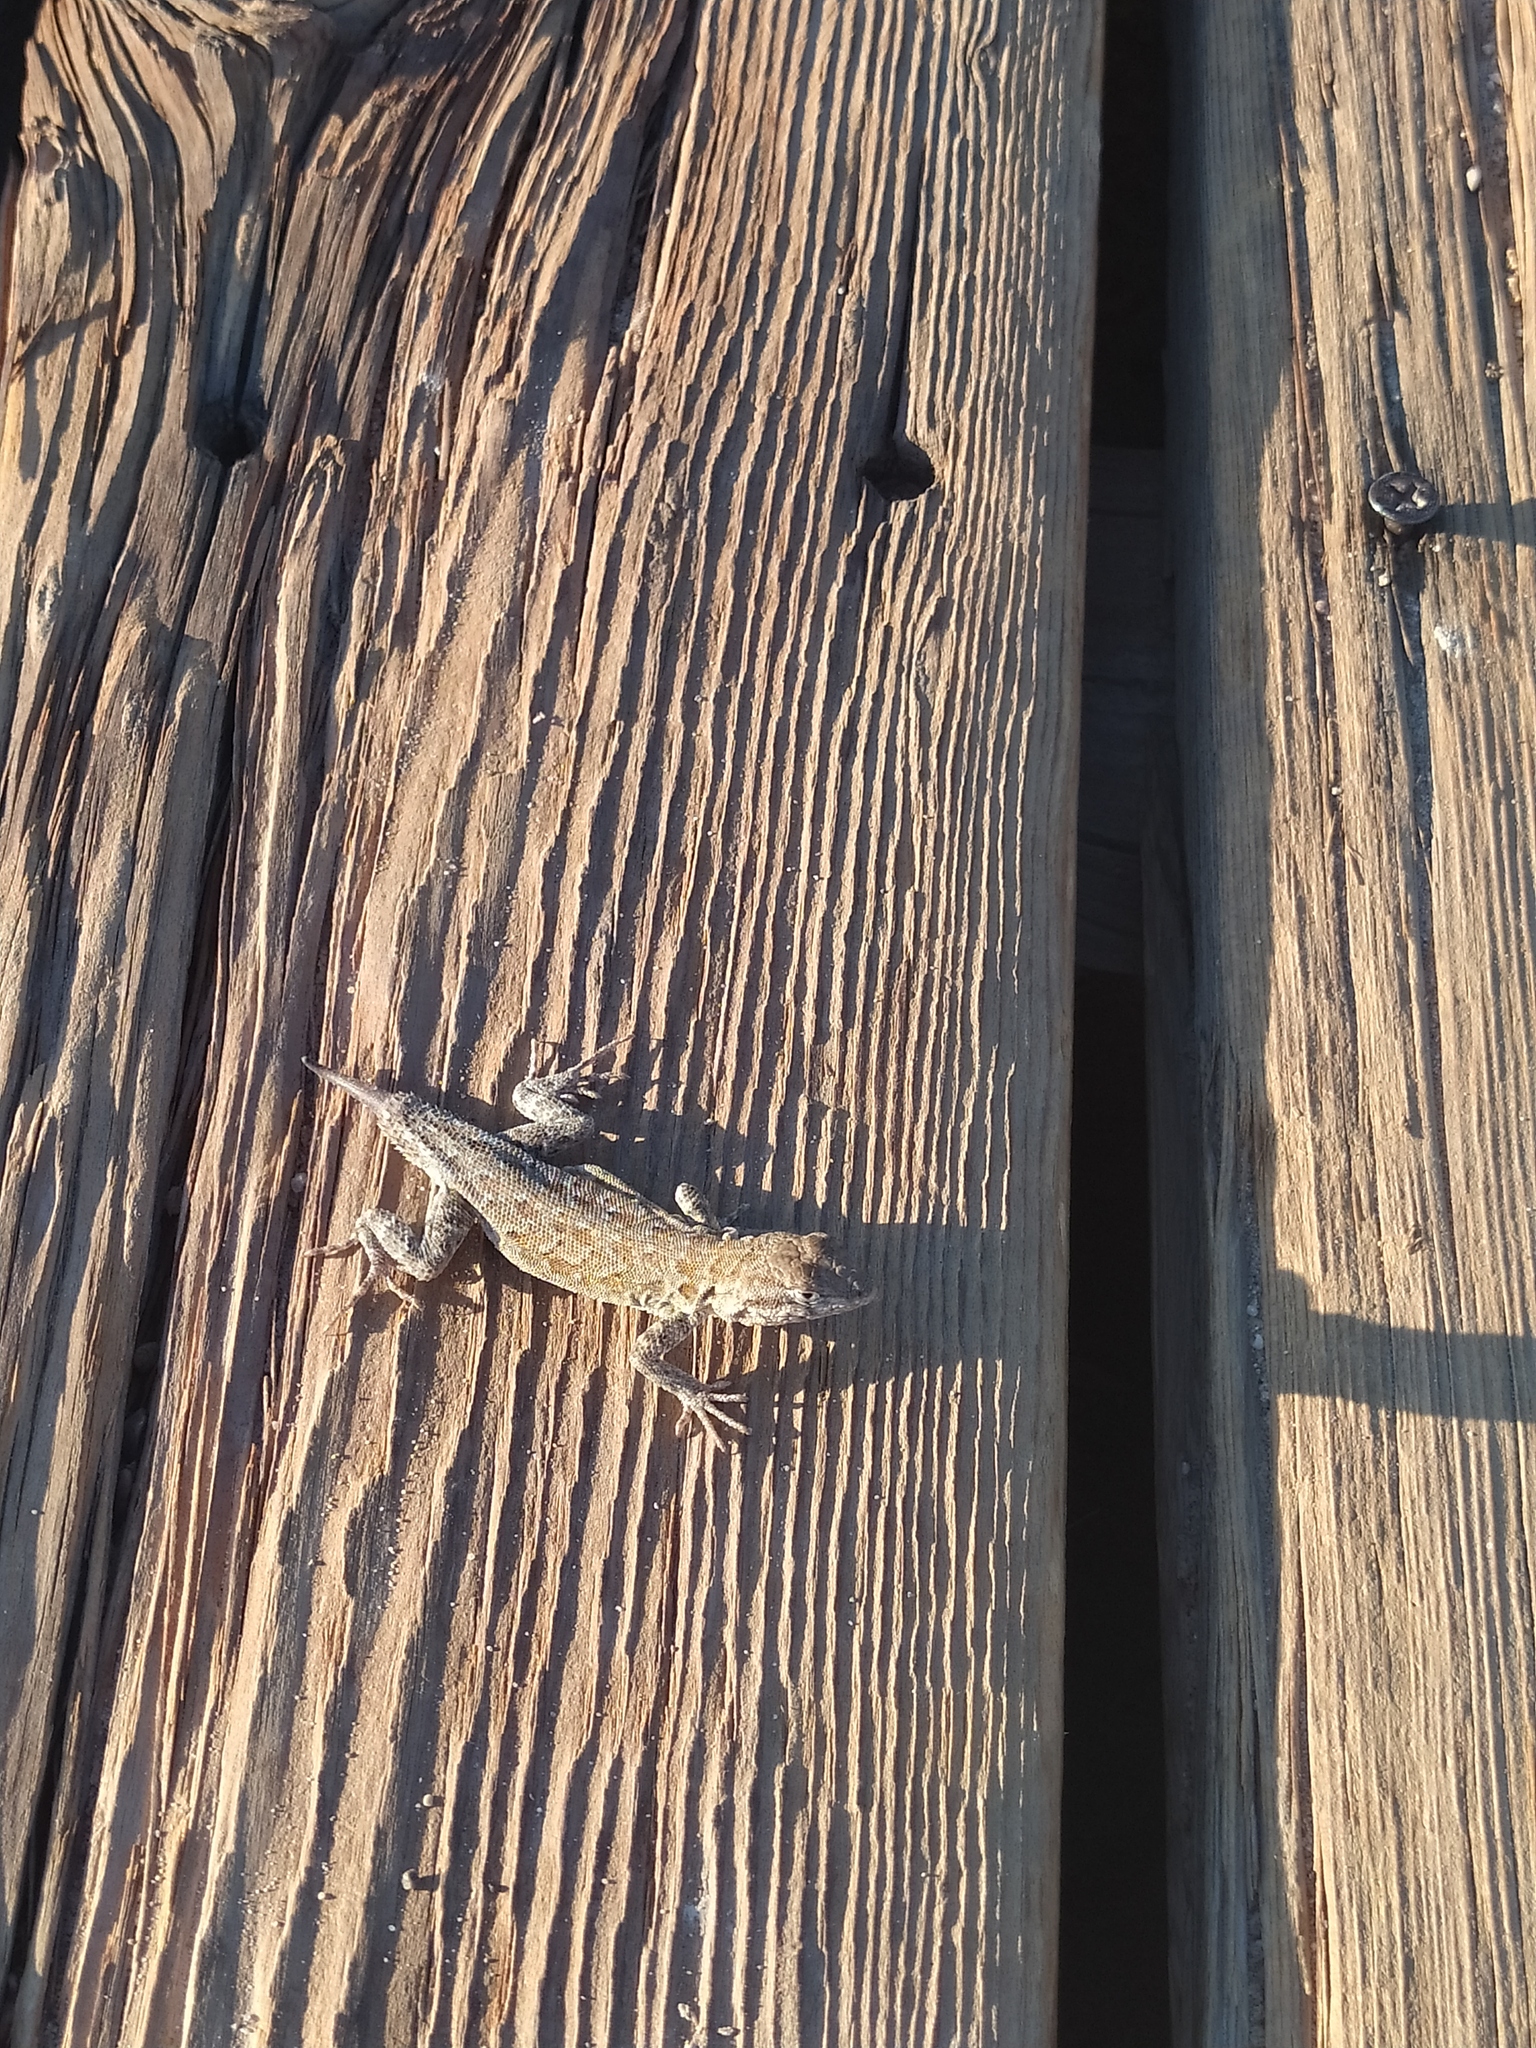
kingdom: Animalia
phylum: Chordata
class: Squamata
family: Phrynosomatidae
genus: Uta
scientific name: Uta stansburiana
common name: Side-blotched lizard
